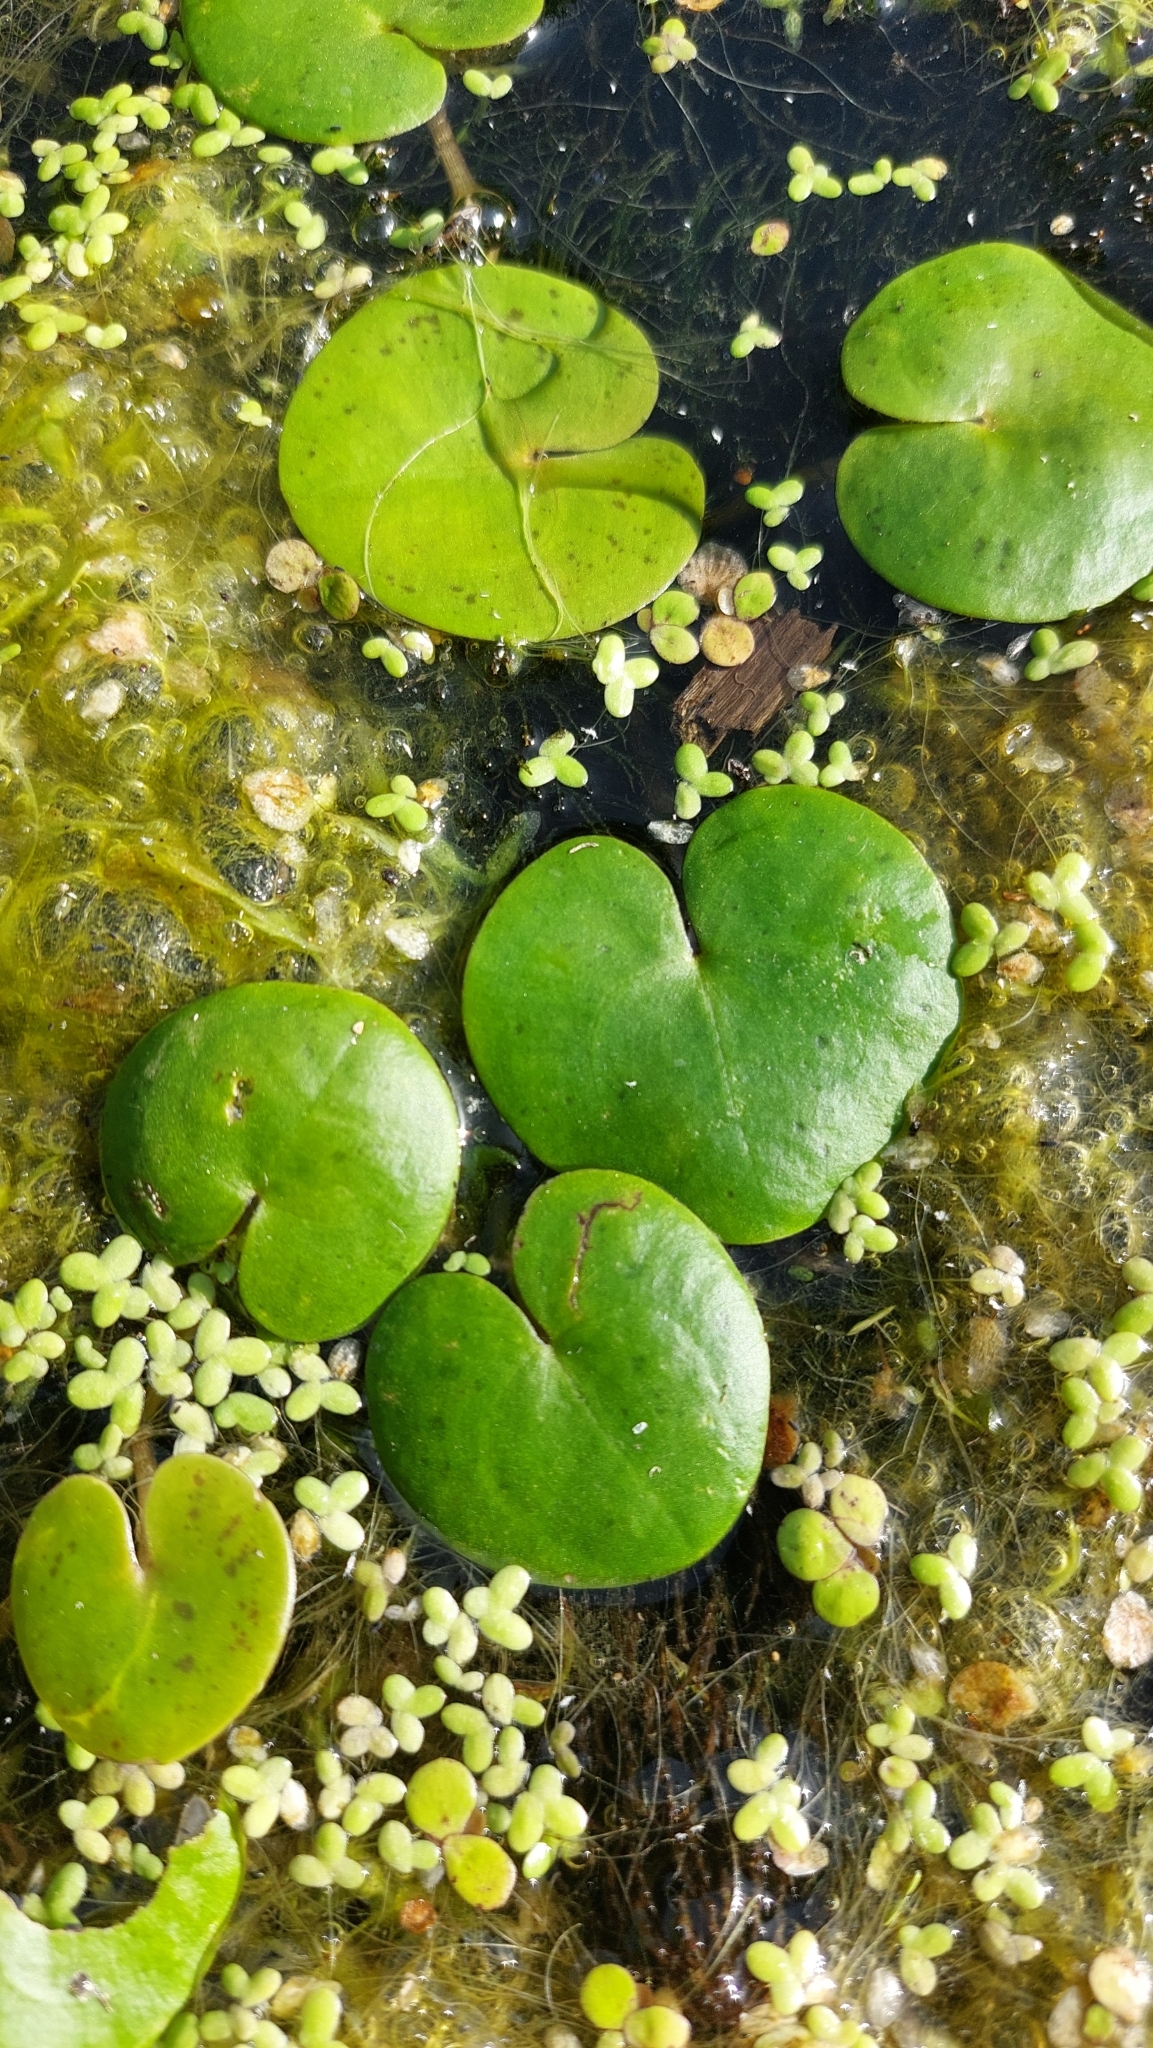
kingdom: Plantae
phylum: Tracheophyta
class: Liliopsida
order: Alismatales
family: Hydrocharitaceae
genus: Hydrocharis
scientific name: Hydrocharis morsus-ranae
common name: Frogbit
